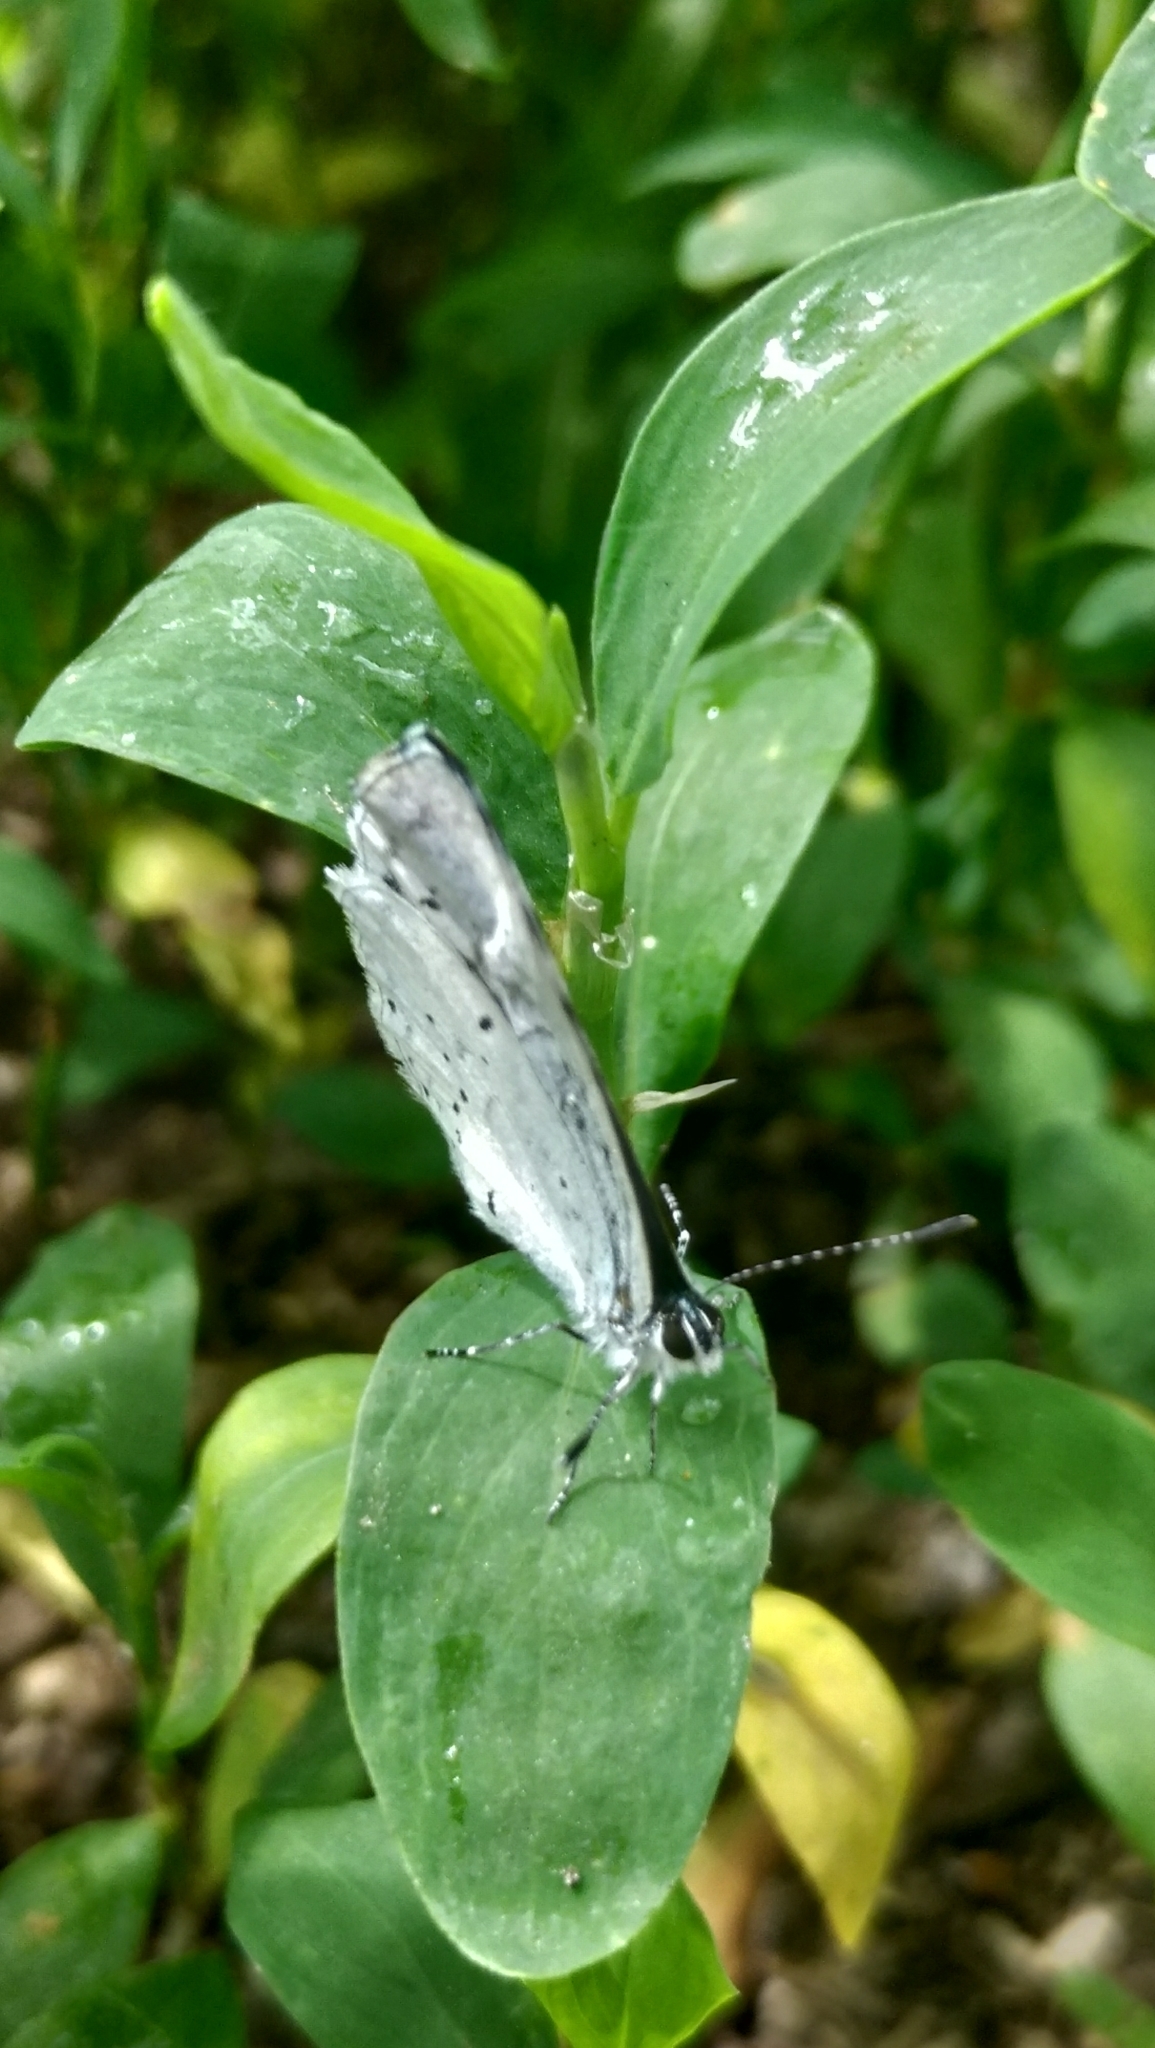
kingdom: Animalia
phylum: Arthropoda
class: Insecta
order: Lepidoptera
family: Lycaenidae
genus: Celastrina
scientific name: Celastrina argiolus
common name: Holly blue
